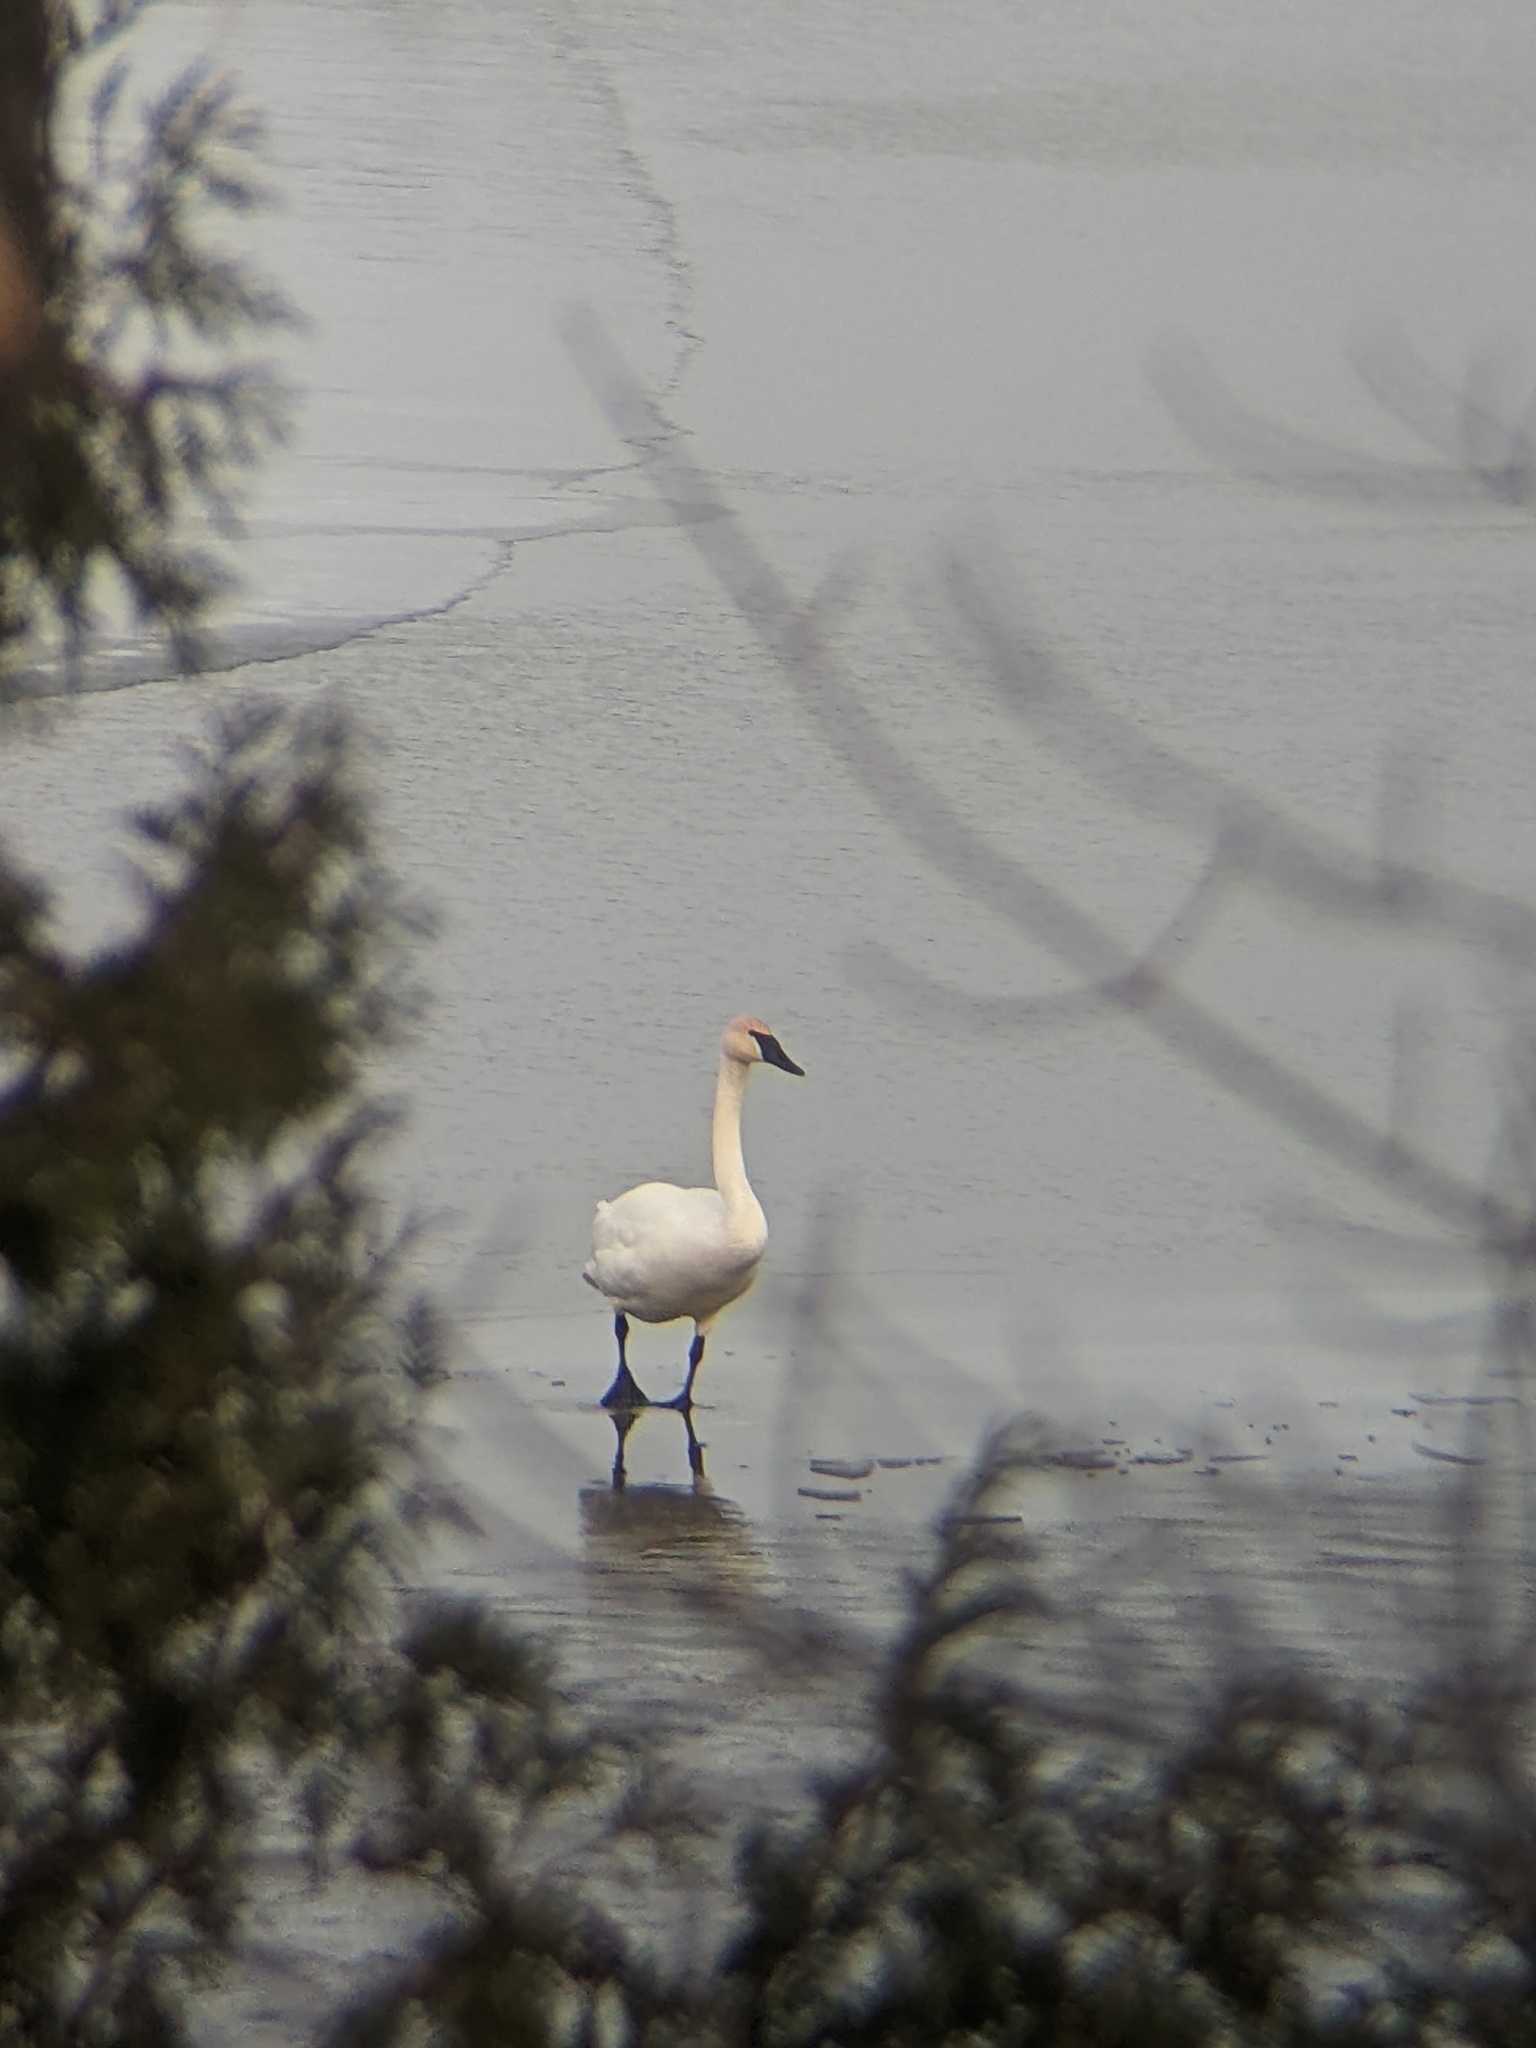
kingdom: Animalia
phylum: Chordata
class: Aves
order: Anseriformes
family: Anatidae
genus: Cygnus
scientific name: Cygnus buccinator
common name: Trumpeter swan
